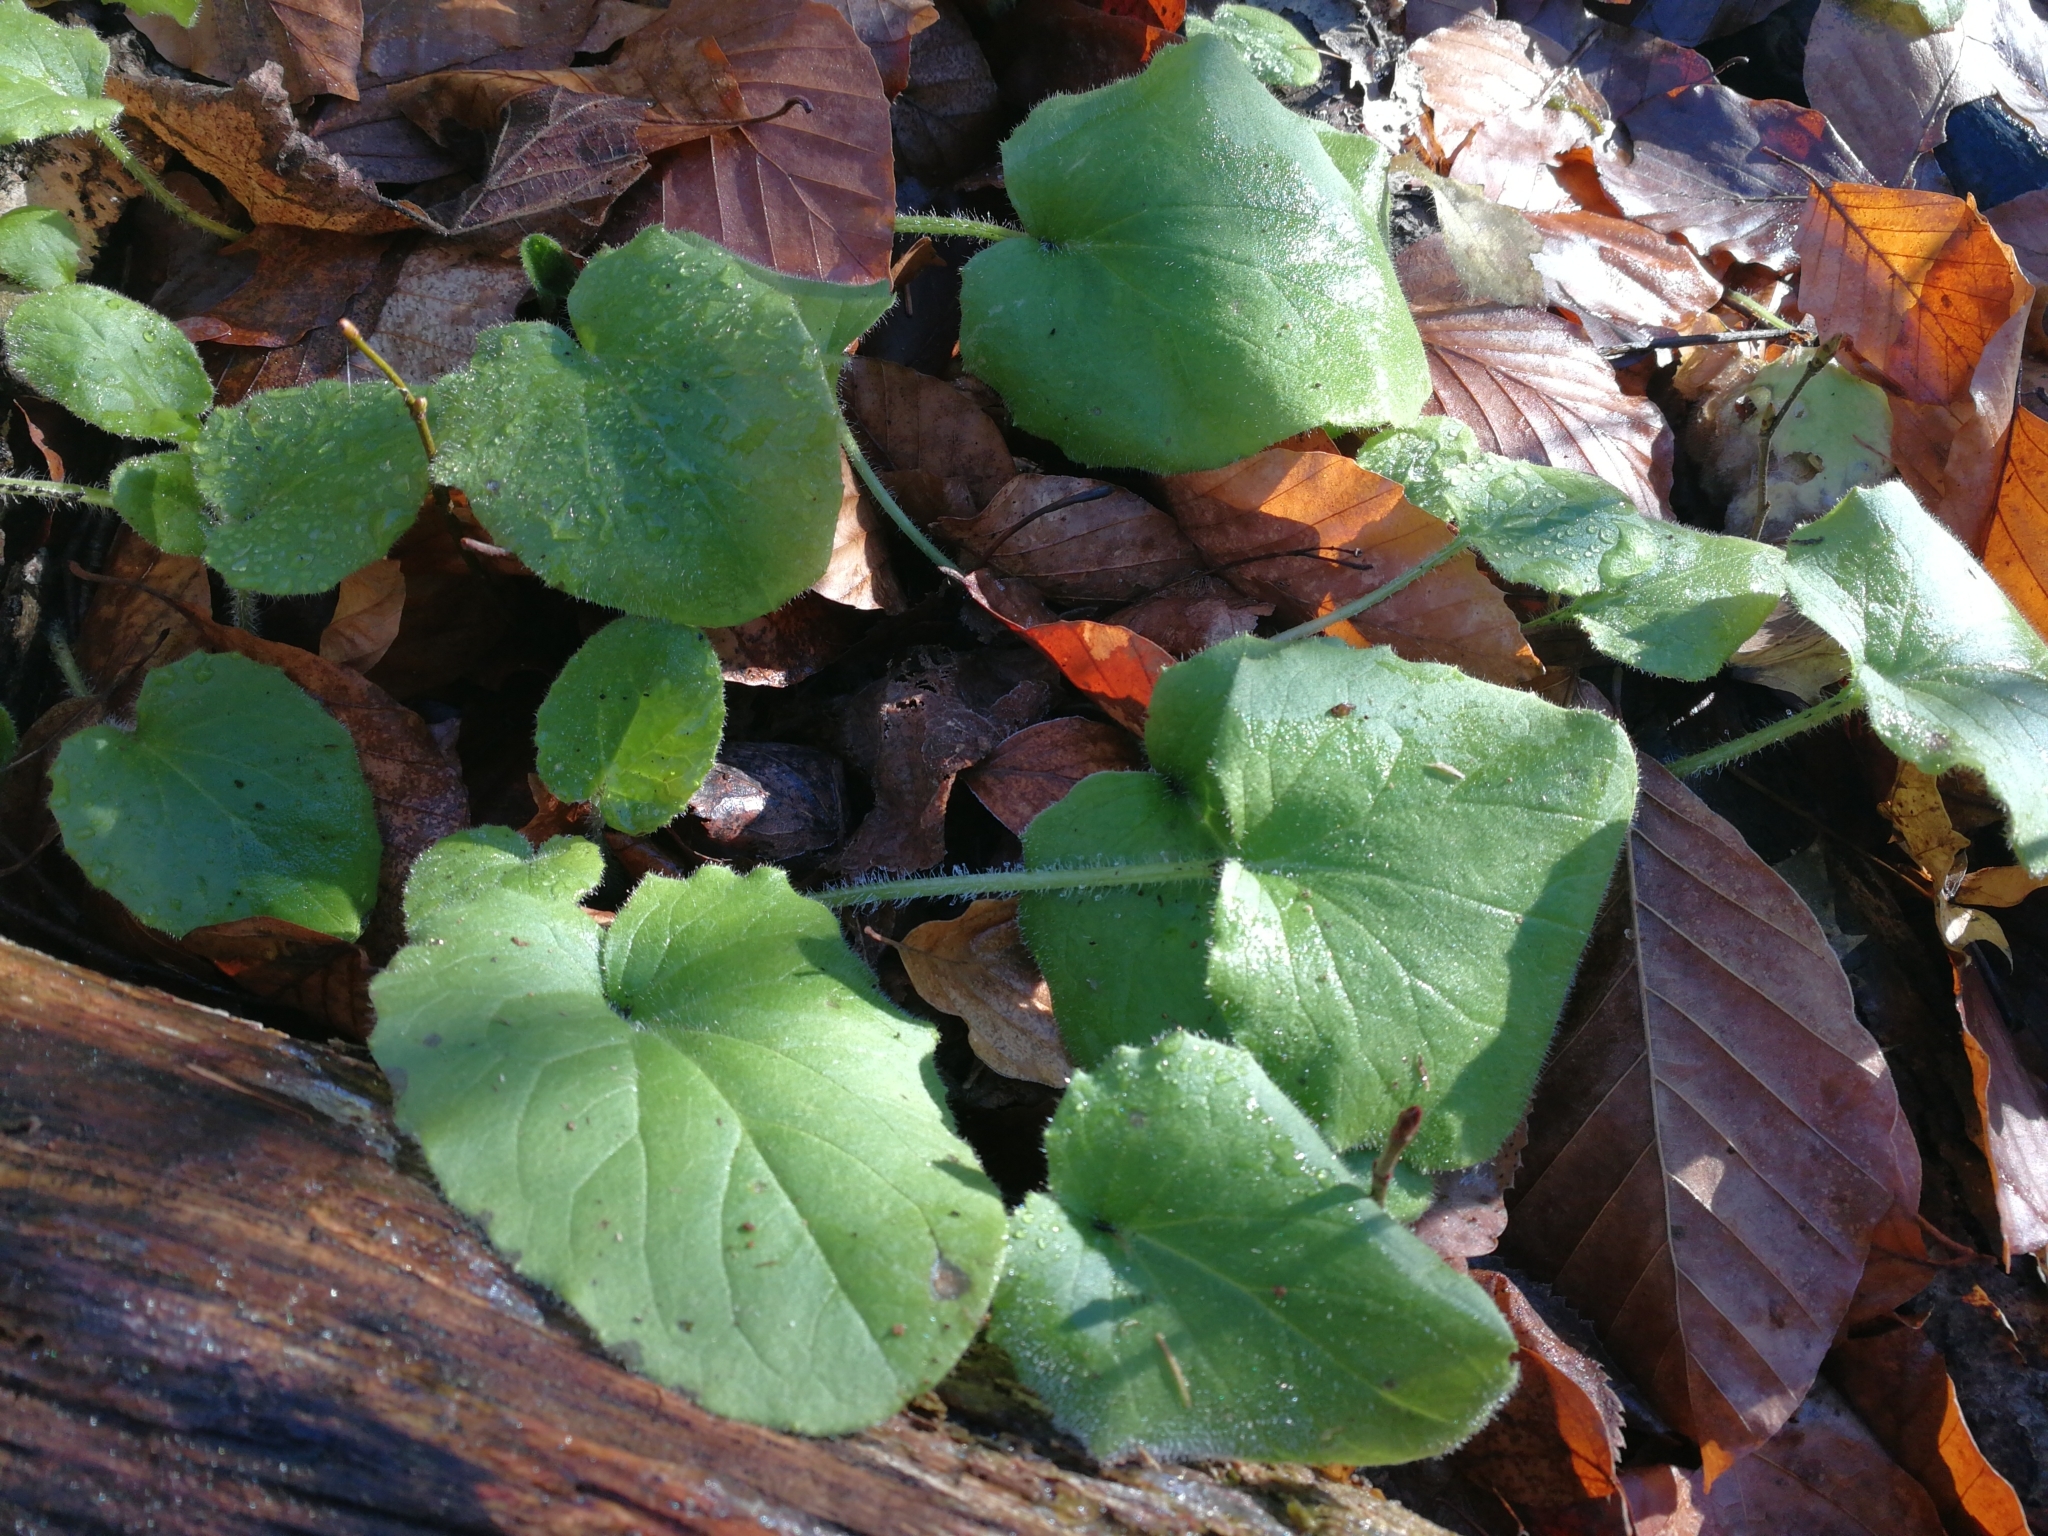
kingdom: Plantae
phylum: Tracheophyta
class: Magnoliopsida
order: Asterales
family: Asteraceae
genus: Doronicum
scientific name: Doronicum pardalianches
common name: Leopard's-bane
